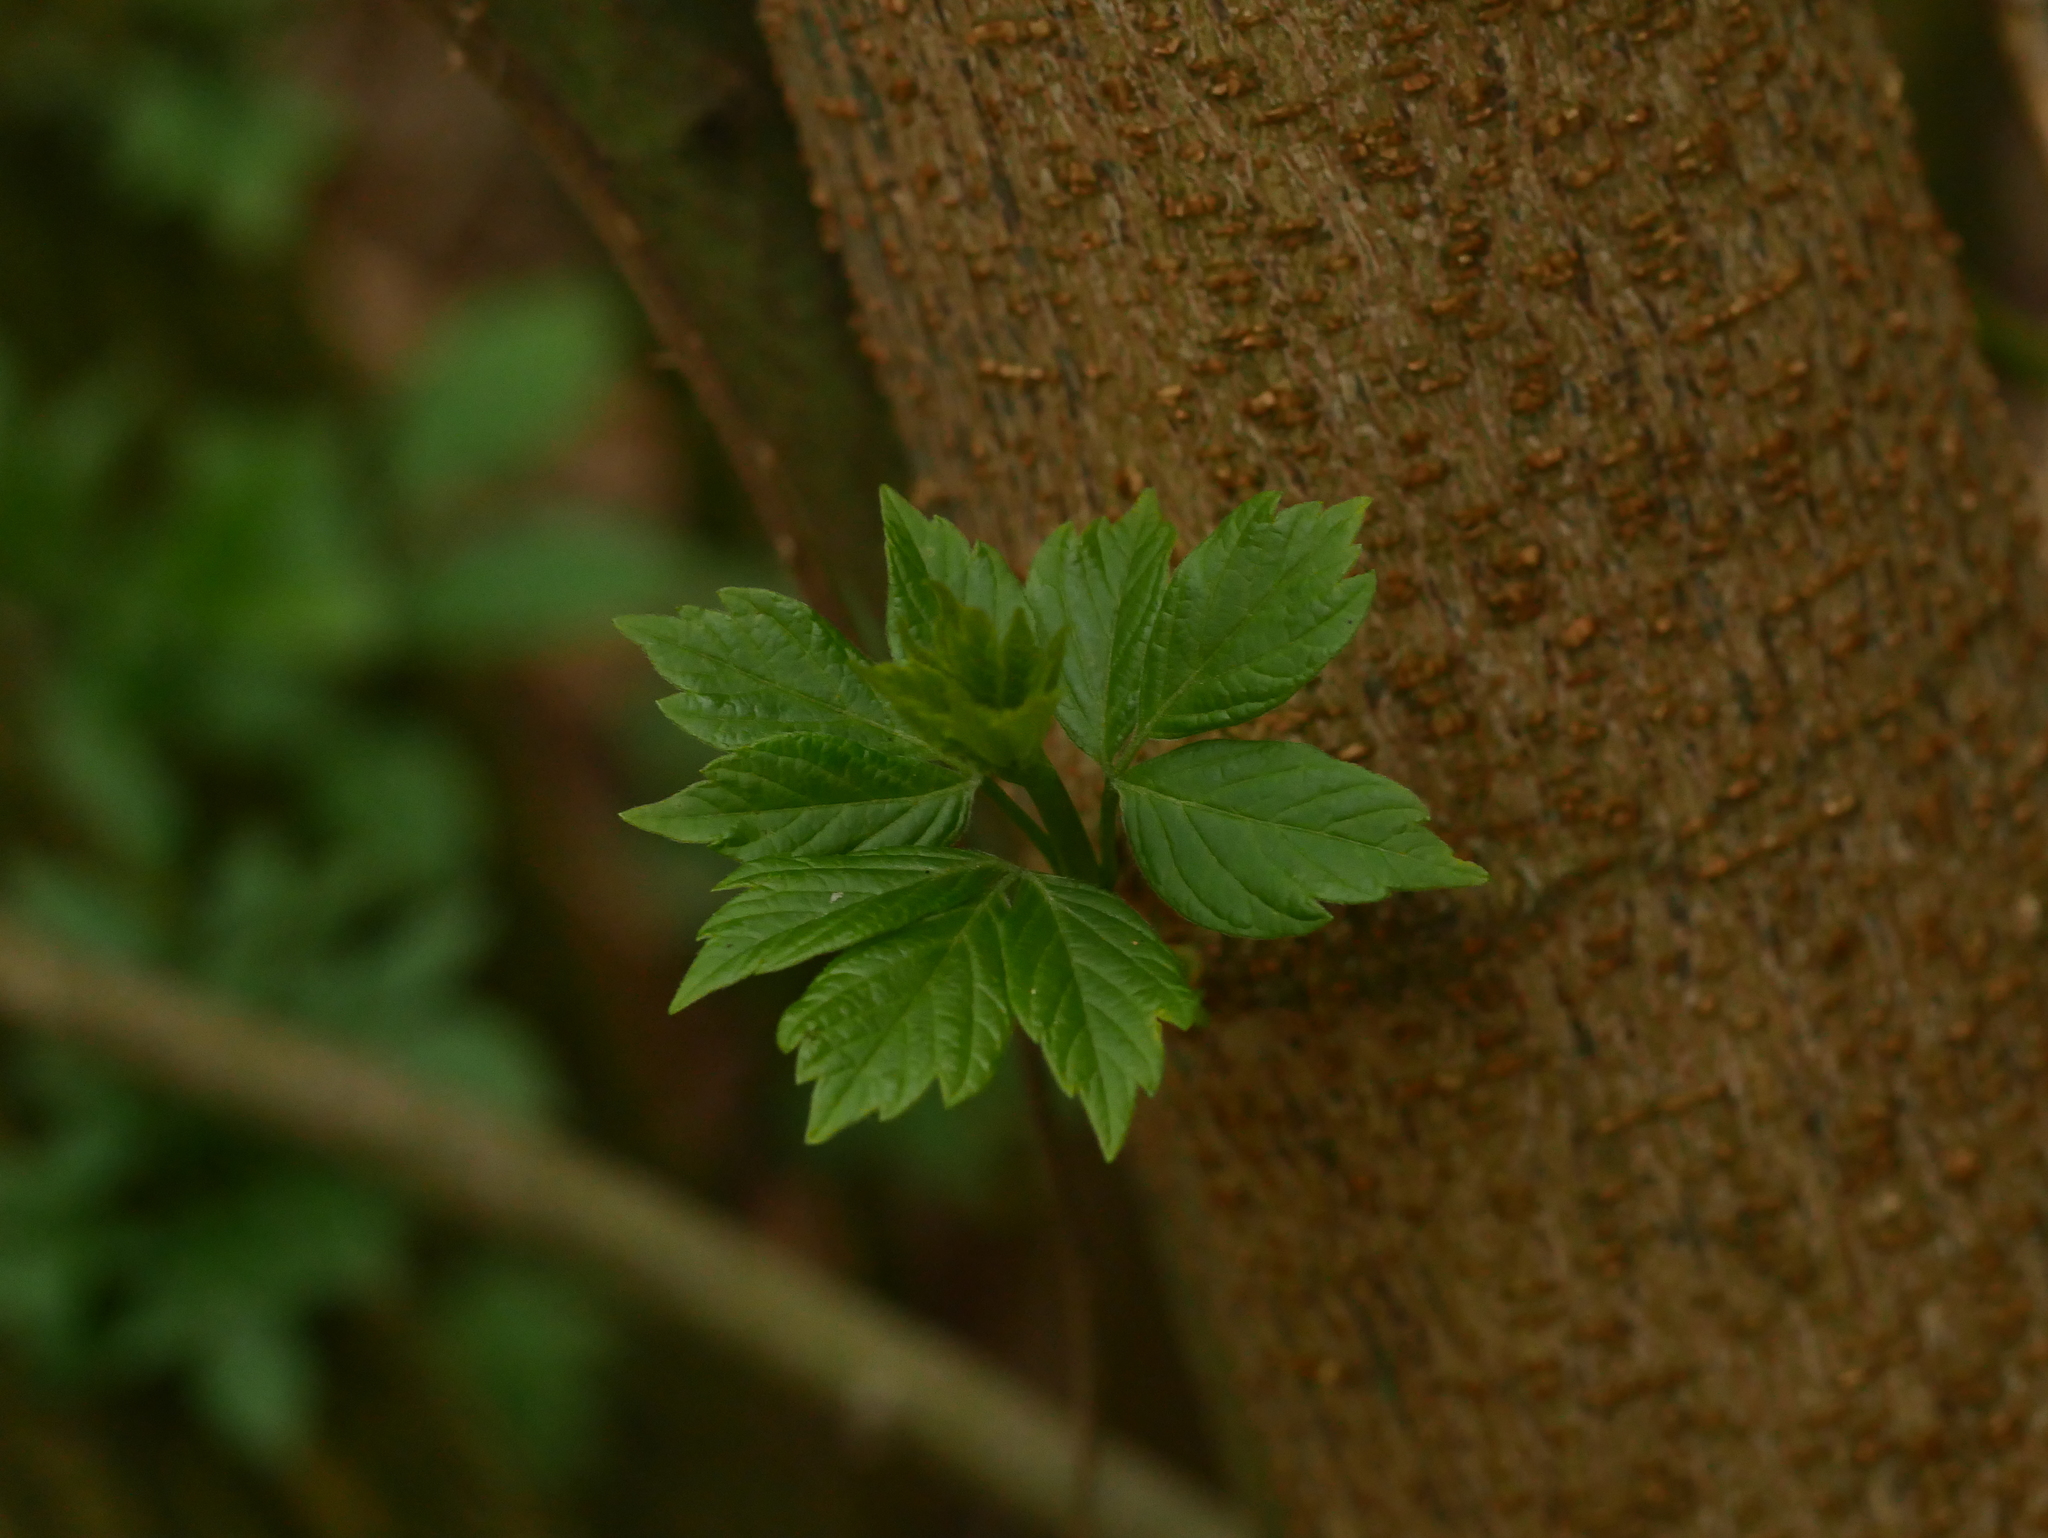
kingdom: Plantae
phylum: Tracheophyta
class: Magnoliopsida
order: Sapindales
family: Sapindaceae
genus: Acer
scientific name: Acer negundo
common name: Ashleaf maple
